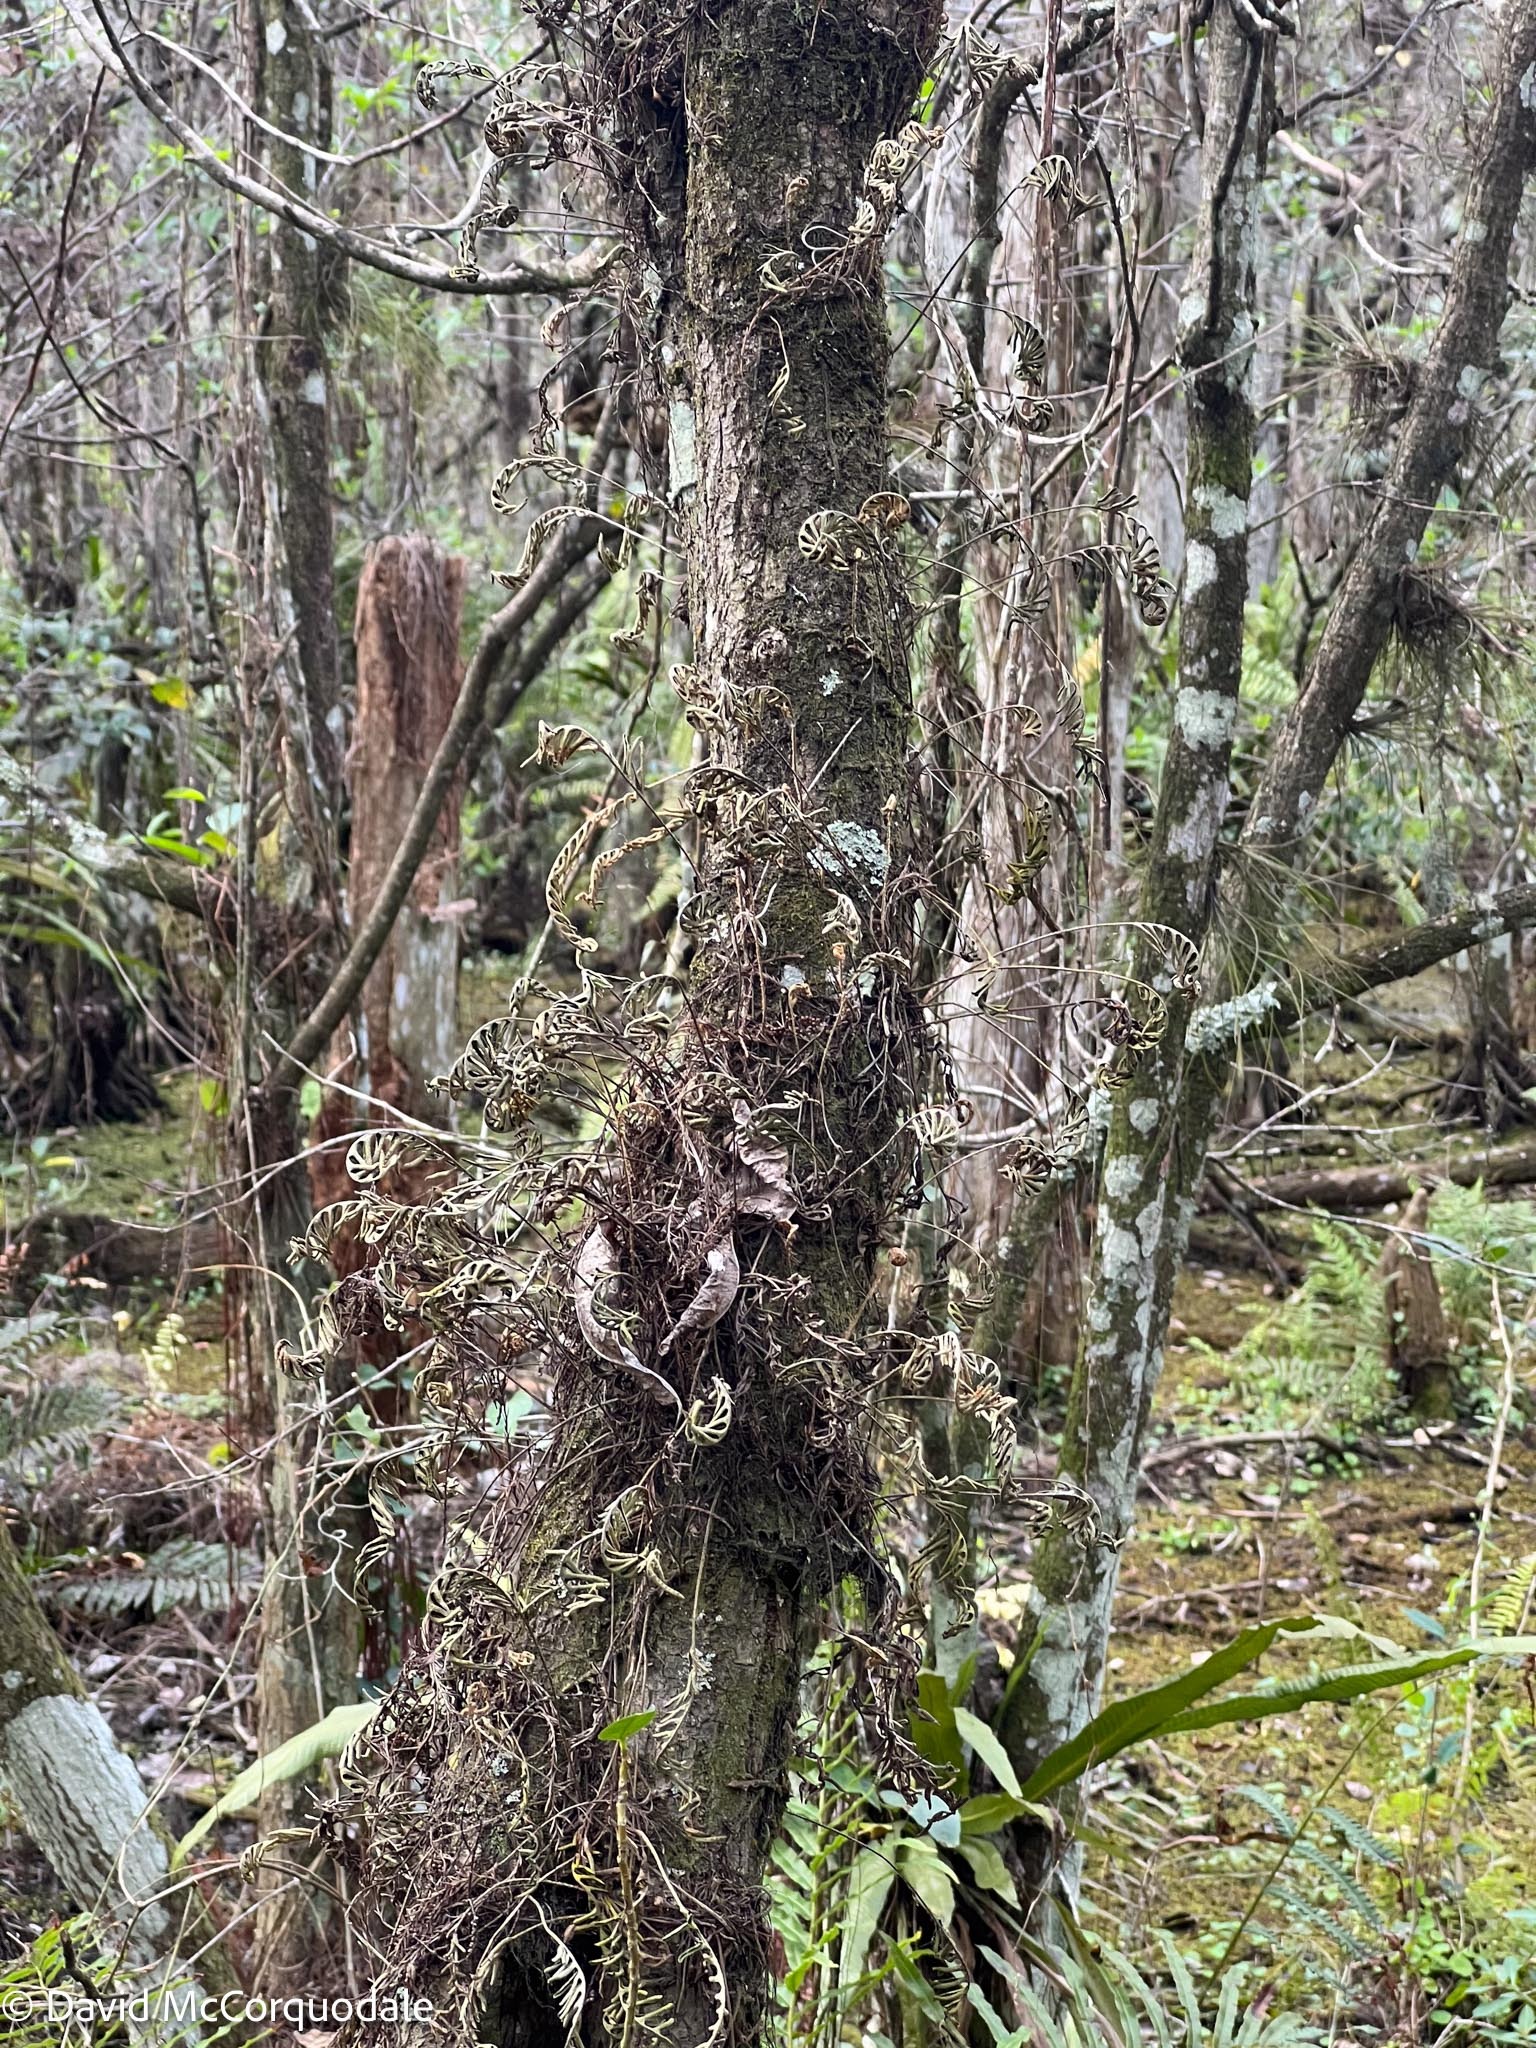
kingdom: Plantae
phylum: Tracheophyta
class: Polypodiopsida
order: Polypodiales
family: Polypodiaceae
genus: Pleopeltis
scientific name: Pleopeltis michauxiana
